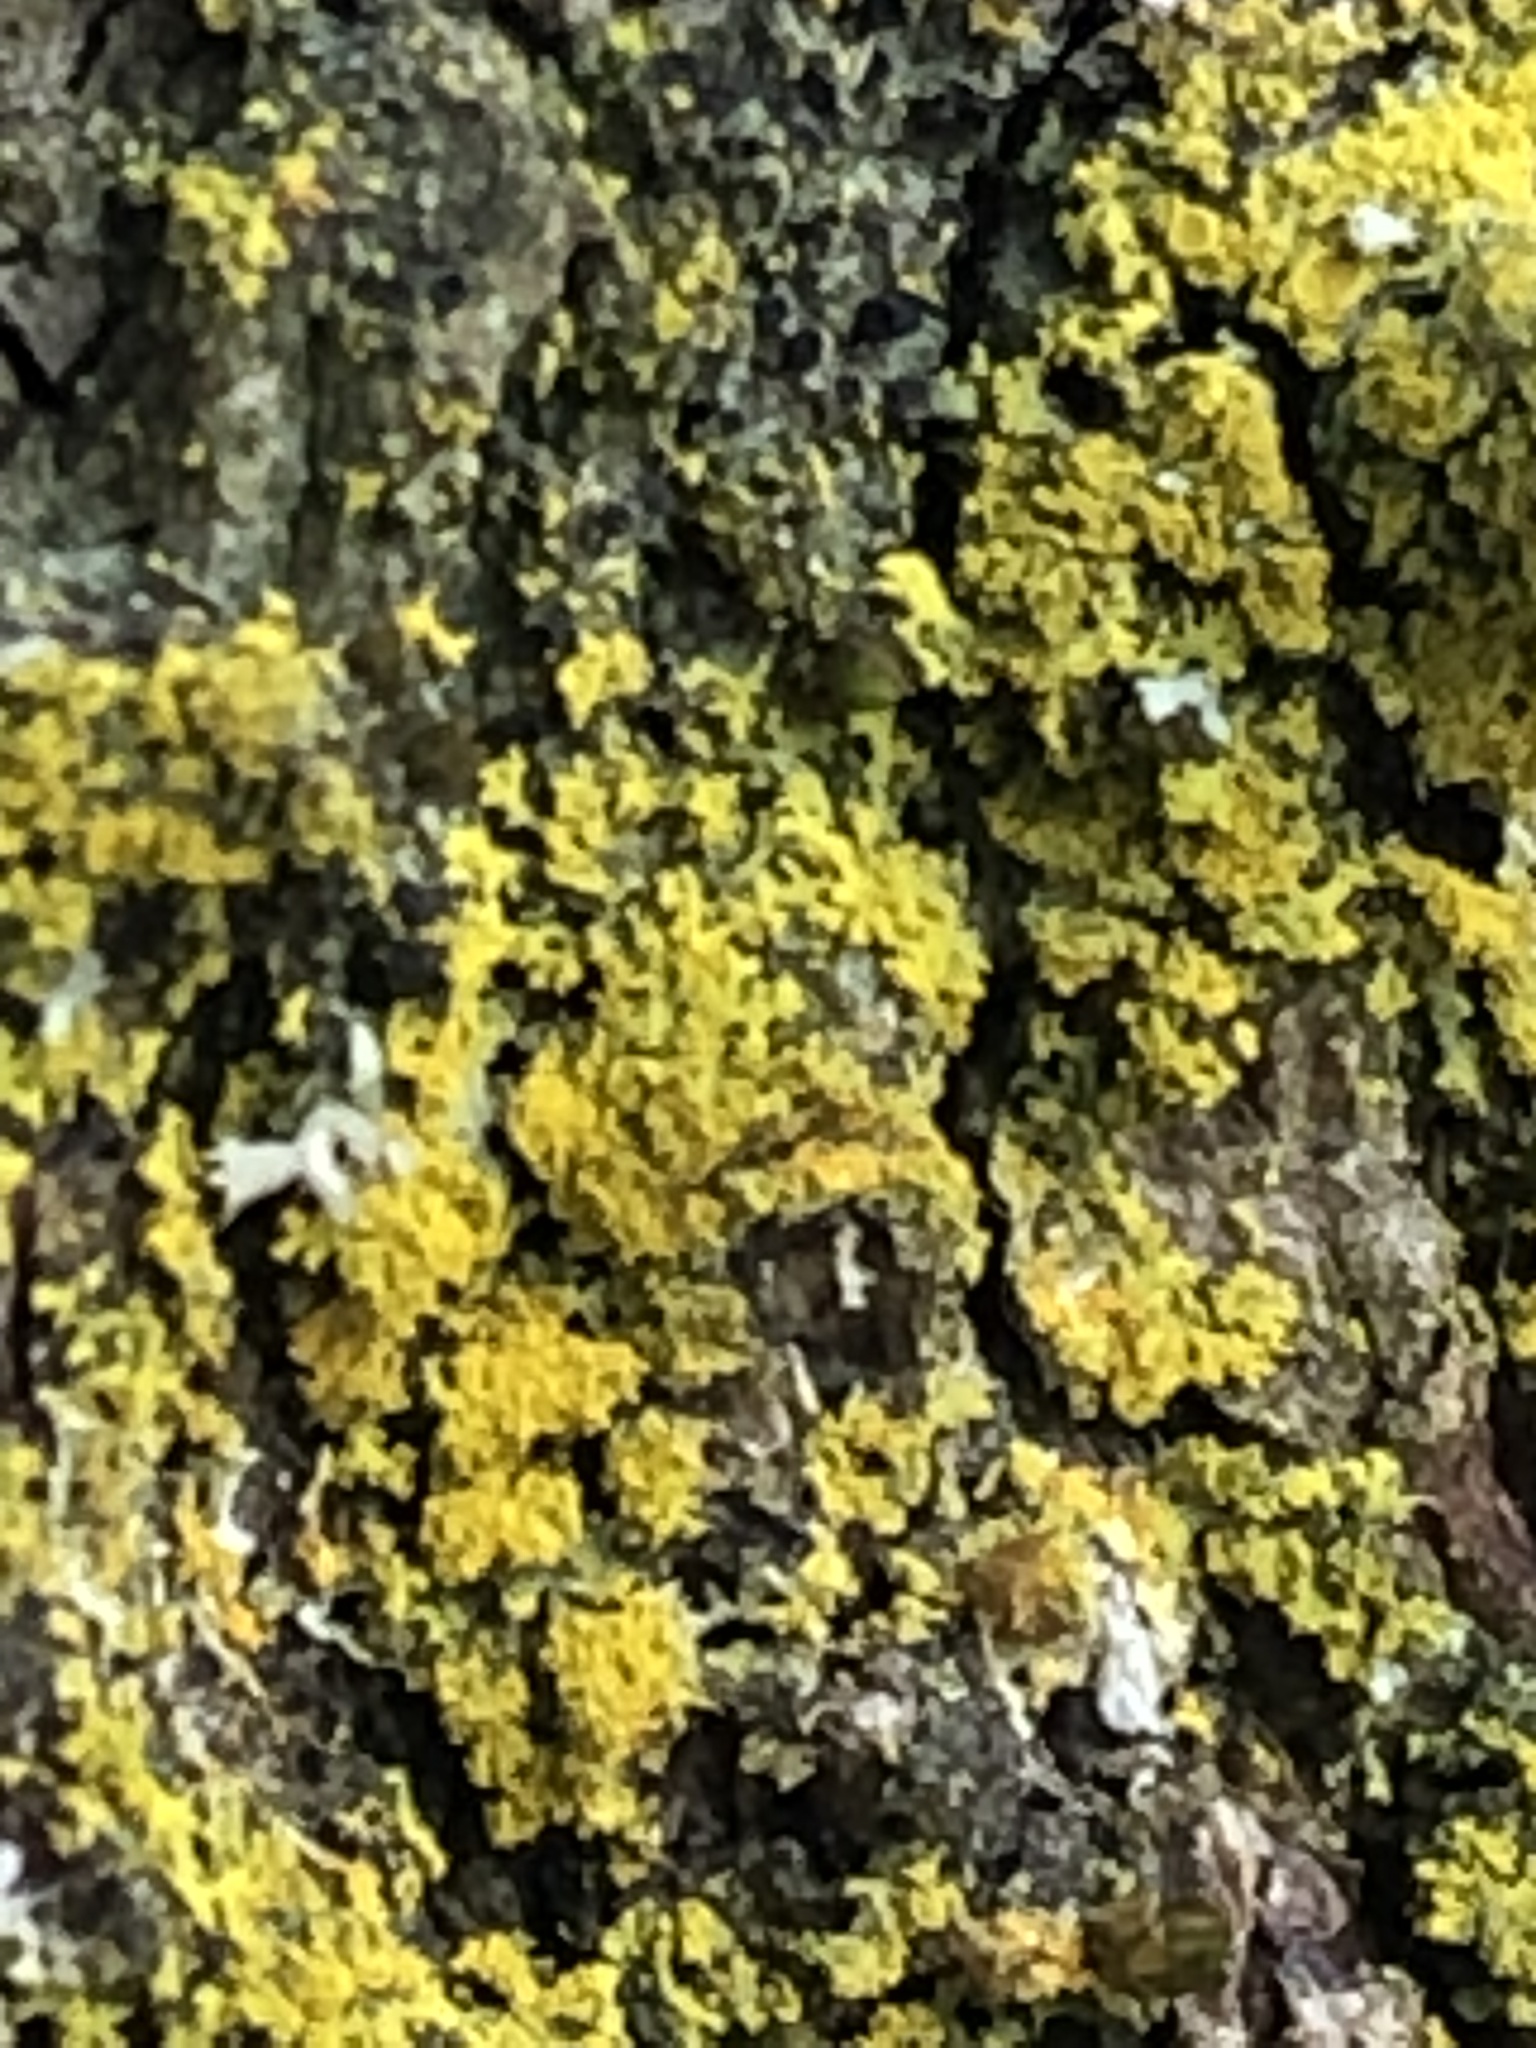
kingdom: Fungi
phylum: Ascomycota
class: Candelariomycetes
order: Candelariales
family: Candelariaceae
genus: Candelaria
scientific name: Candelaria concolor
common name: Candleflame lichen
